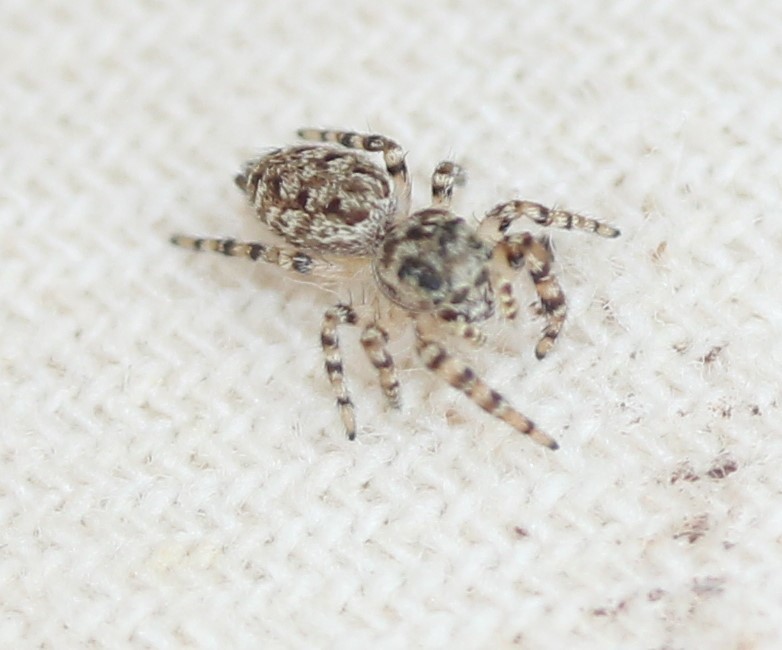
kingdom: Animalia
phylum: Arthropoda
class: Arachnida
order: Araneae
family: Salticidae
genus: Pelegrina
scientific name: Pelegrina galathea
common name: Jumping spiders
